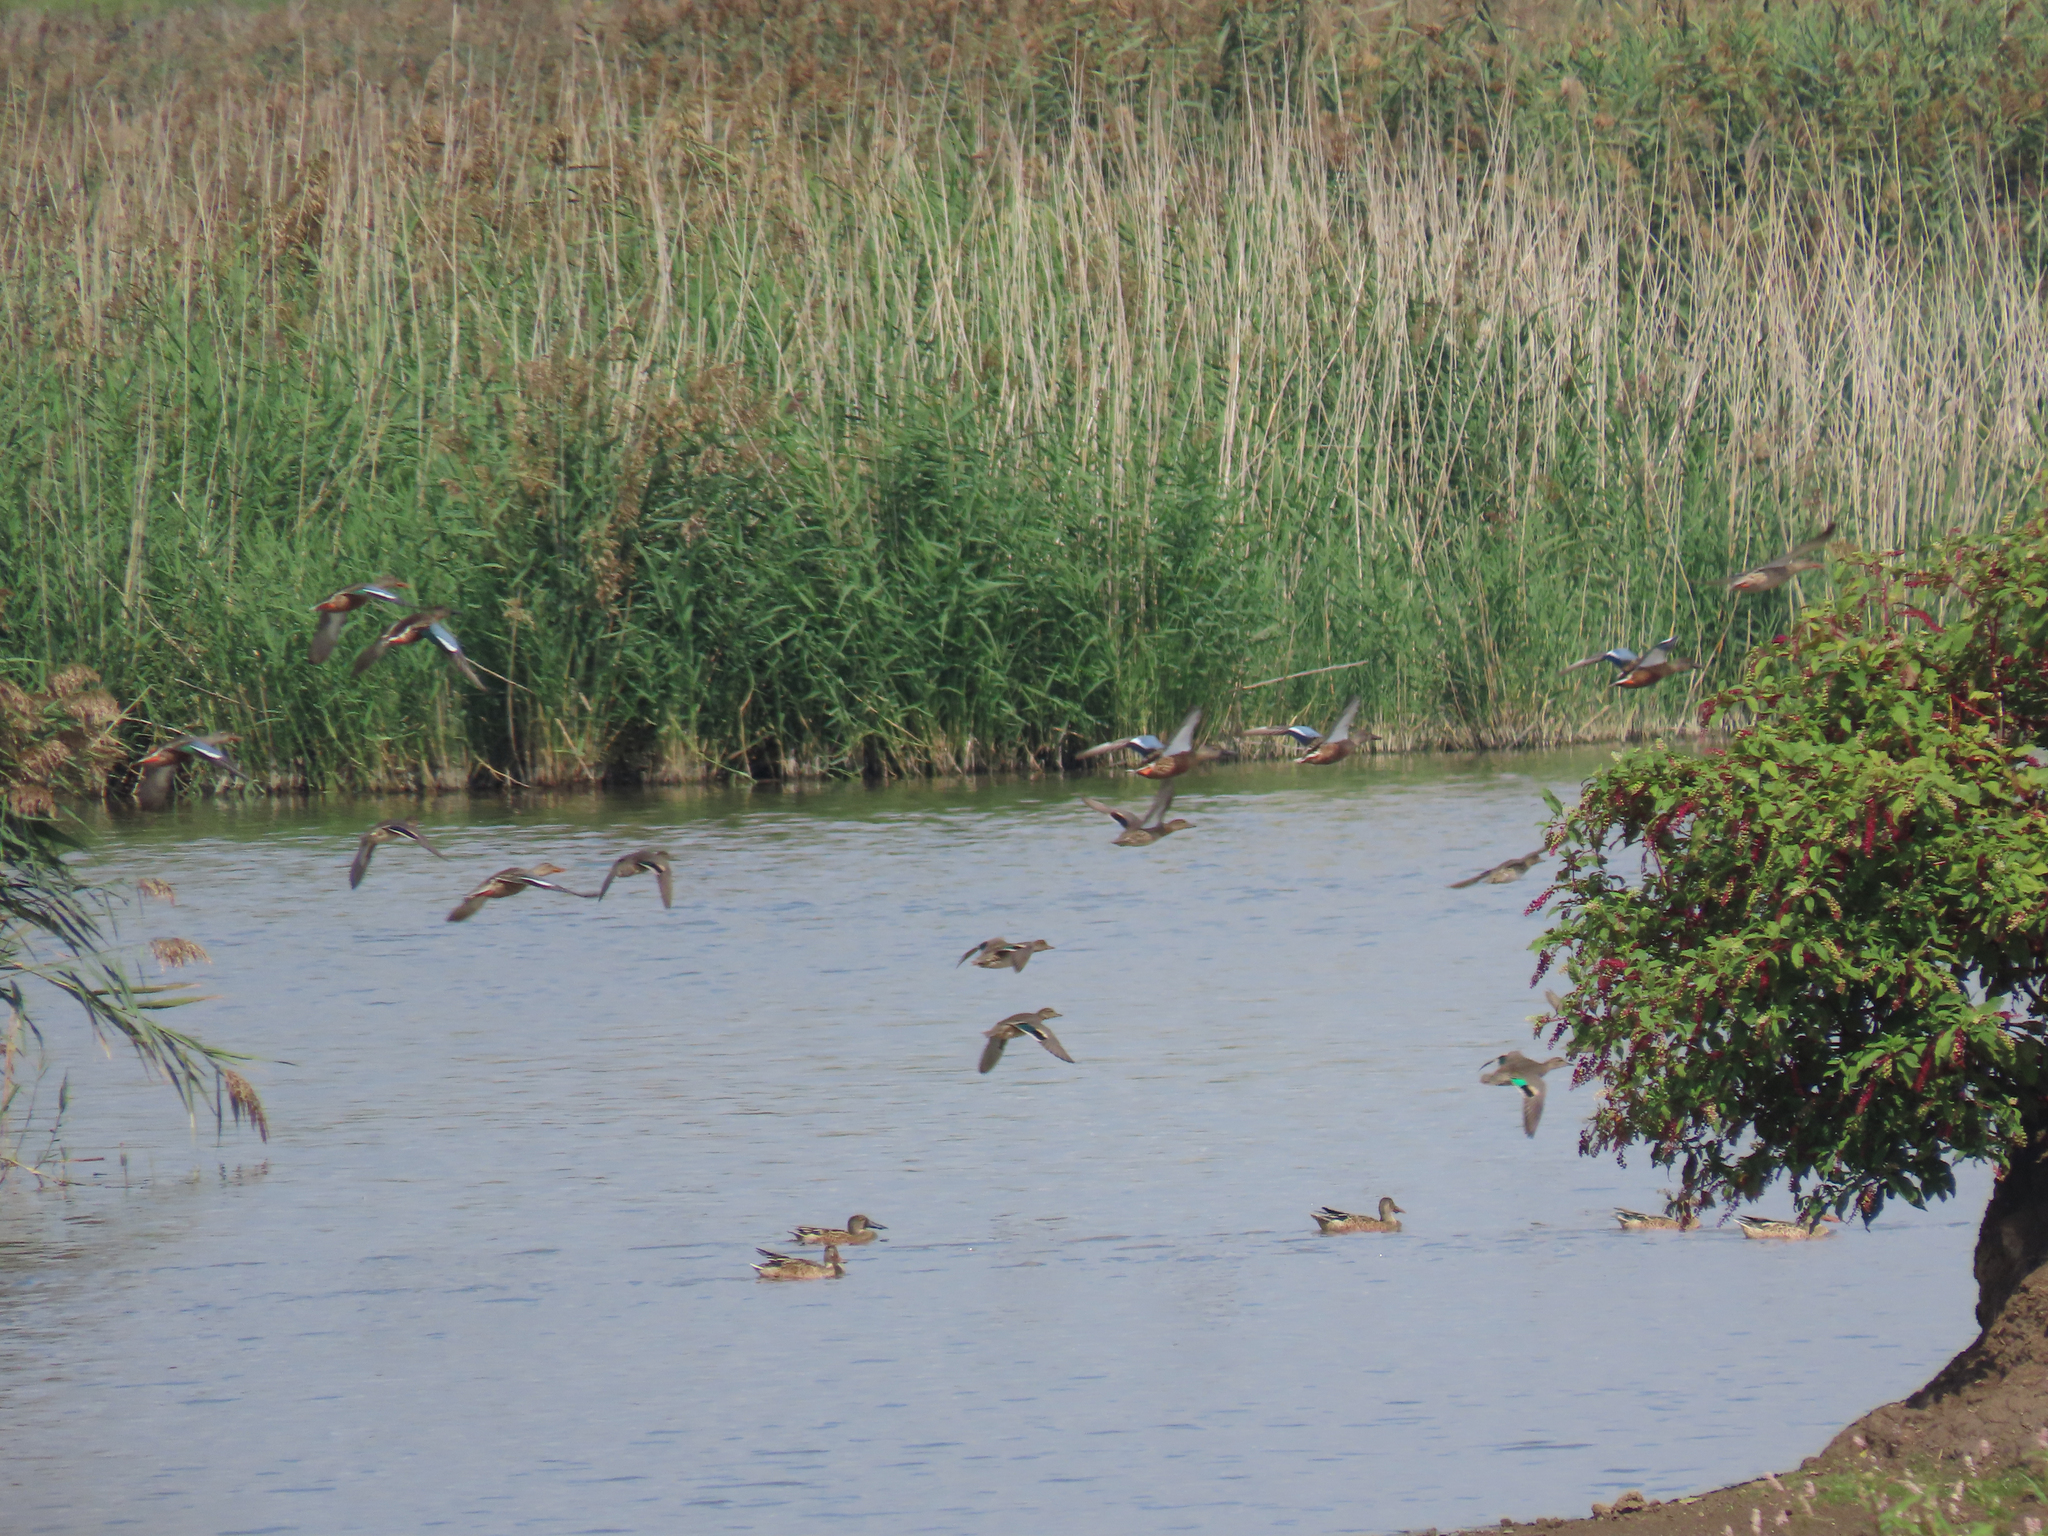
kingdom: Animalia
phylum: Chordata
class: Aves
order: Anseriformes
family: Anatidae
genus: Spatula
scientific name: Spatula clypeata
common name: Northern shoveler
